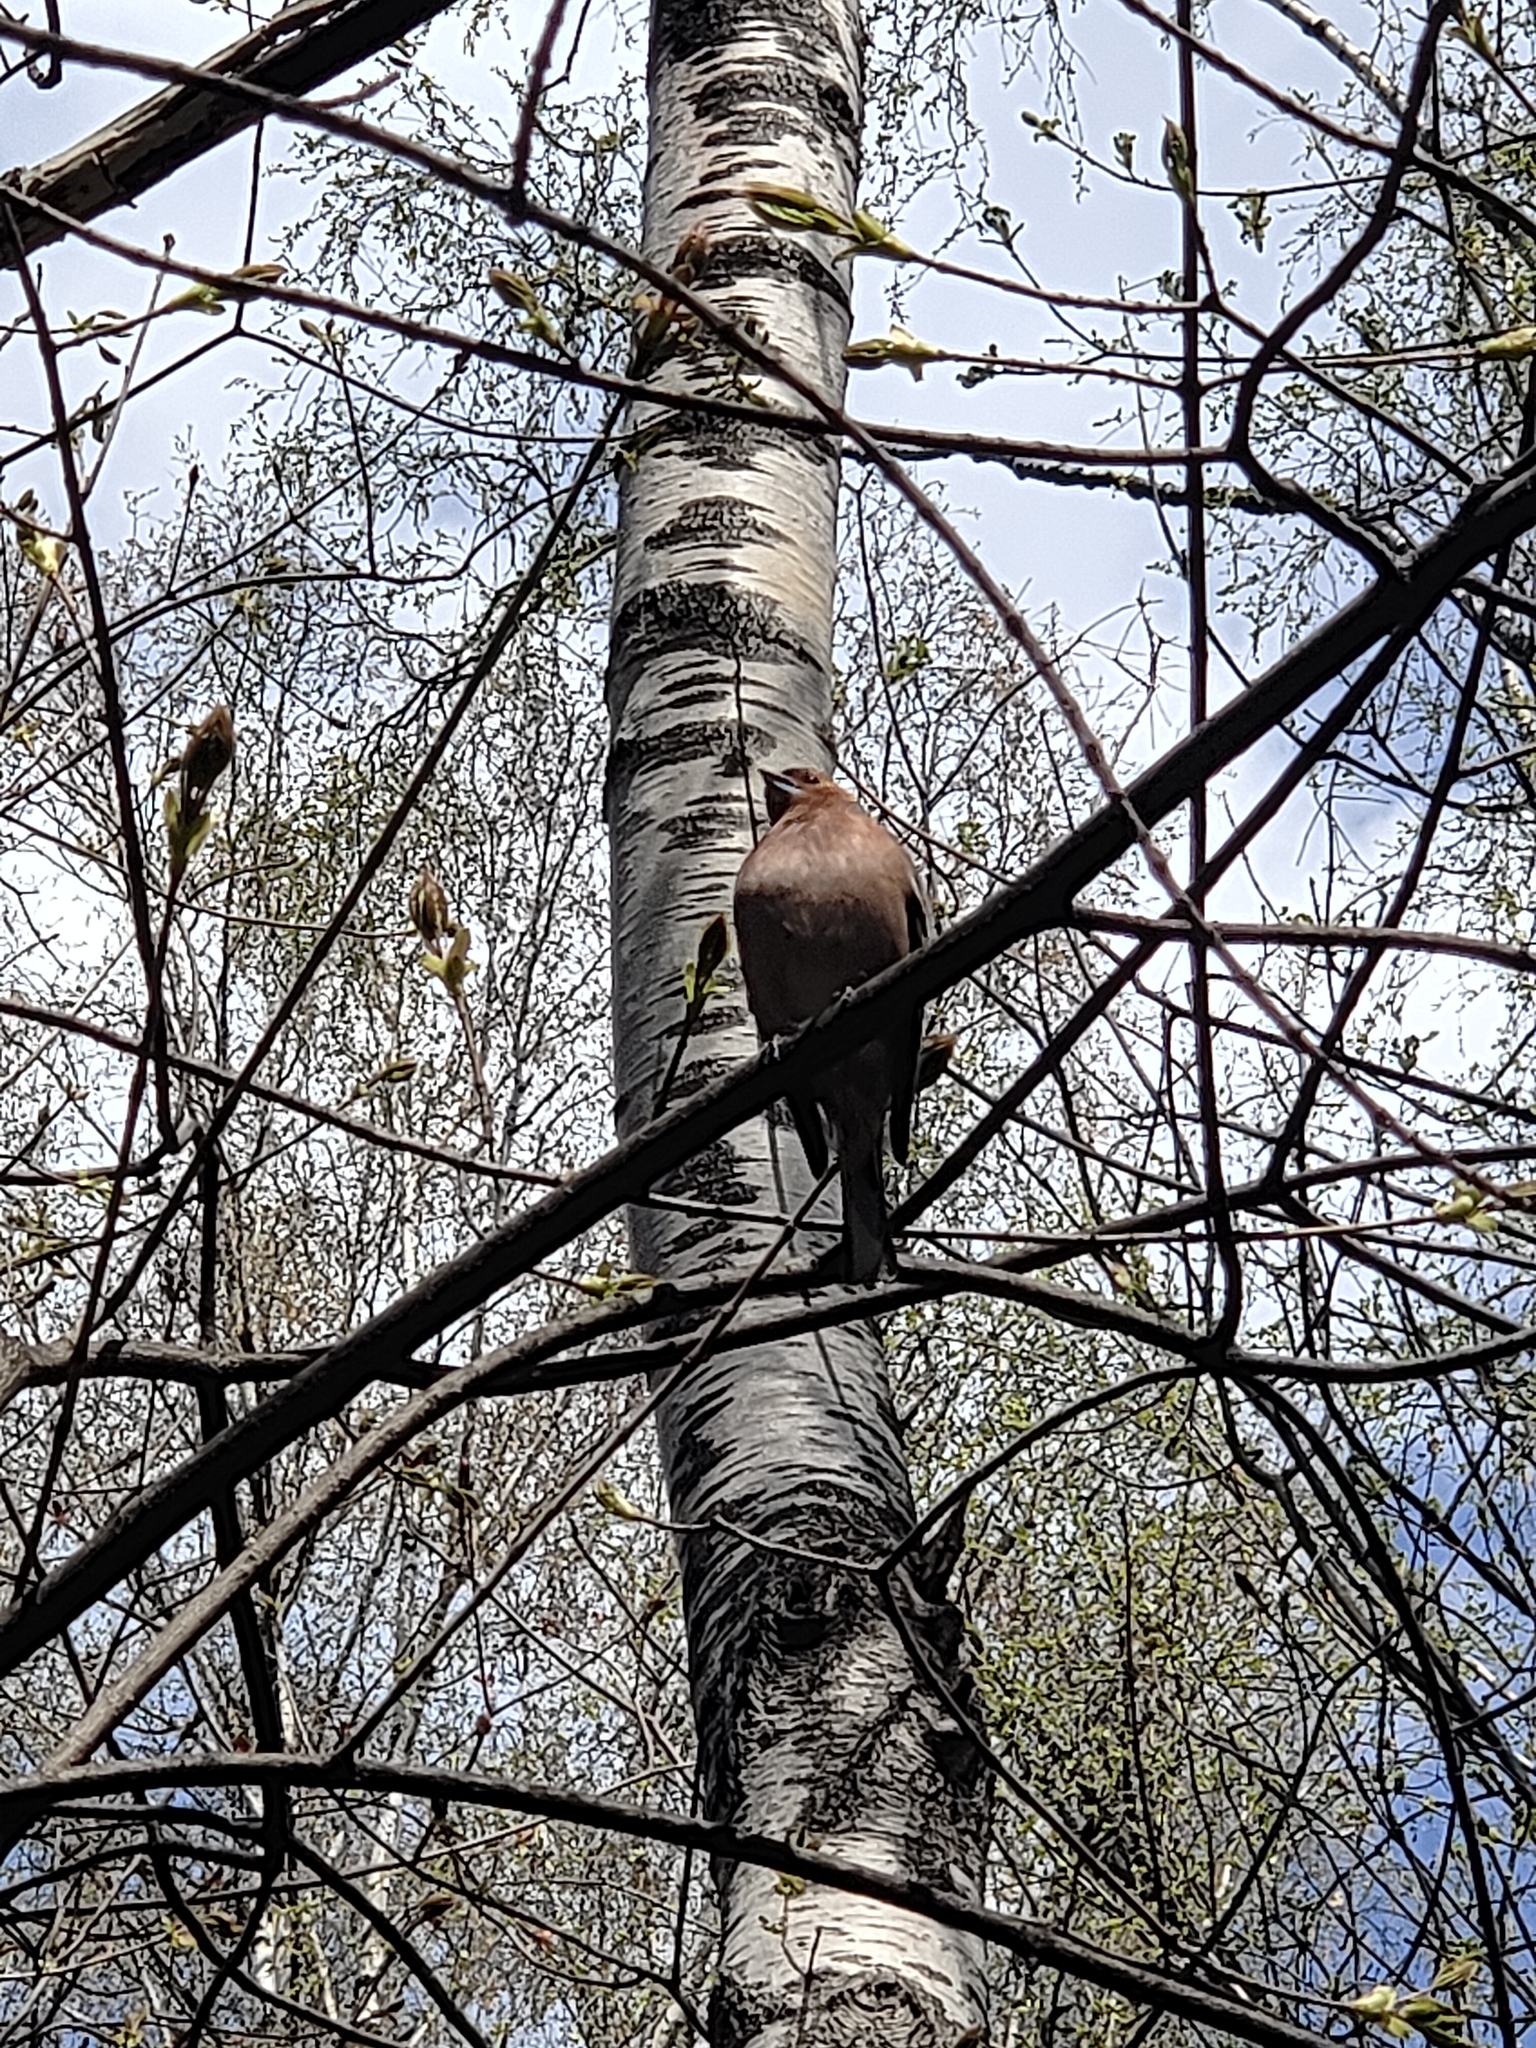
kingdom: Animalia
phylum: Chordata
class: Aves
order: Passeriformes
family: Fringillidae
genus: Fringilla
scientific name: Fringilla coelebs
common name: Common chaffinch
